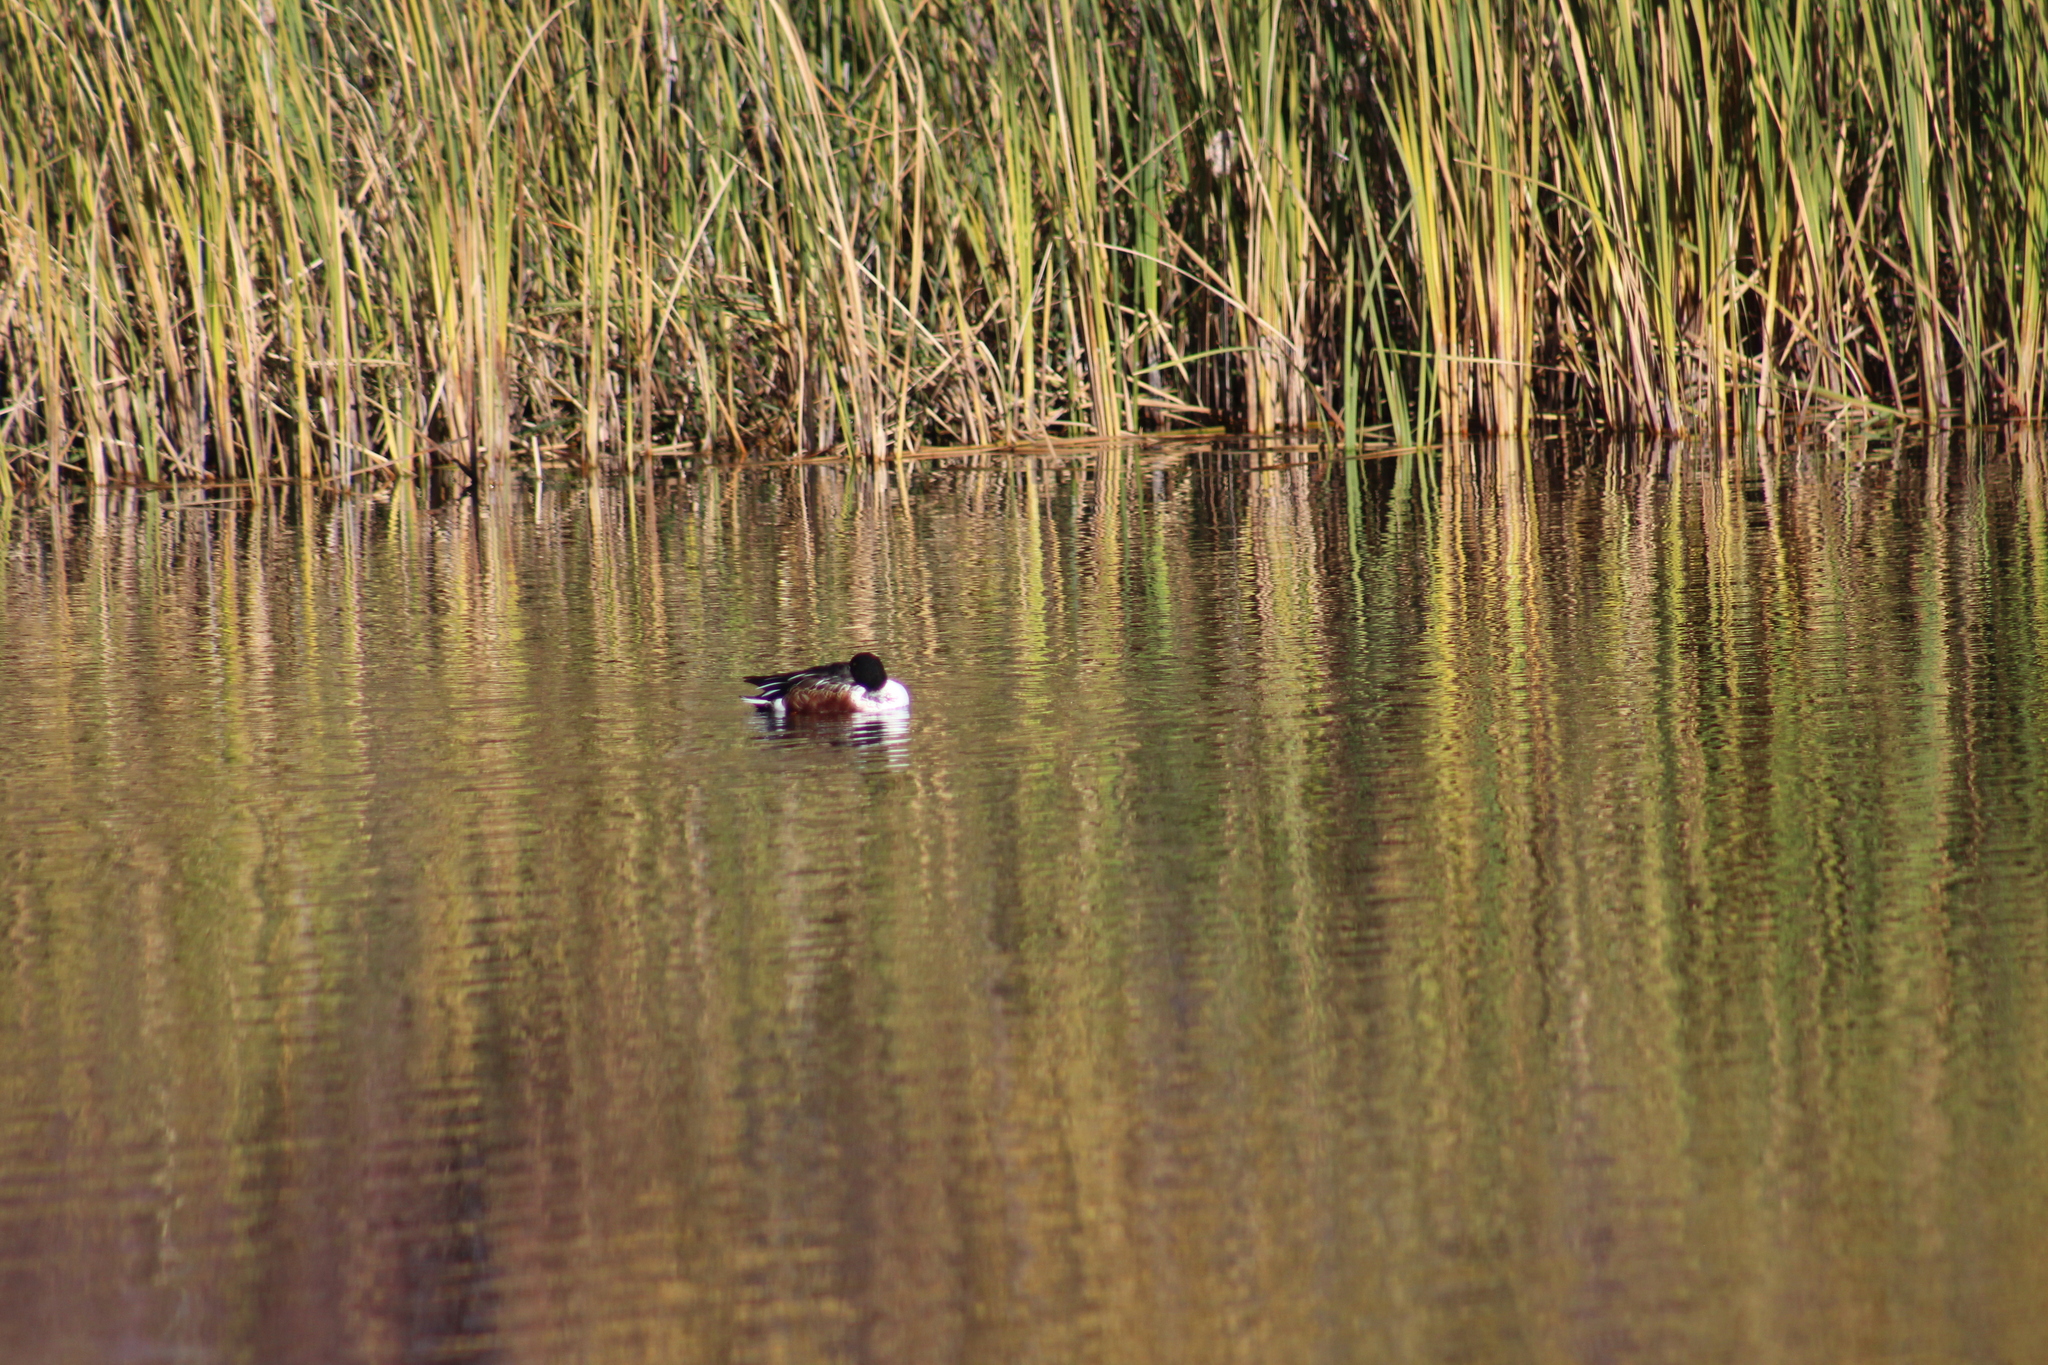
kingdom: Animalia
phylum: Chordata
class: Aves
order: Anseriformes
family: Anatidae
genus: Spatula
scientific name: Spatula clypeata
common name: Northern shoveler
